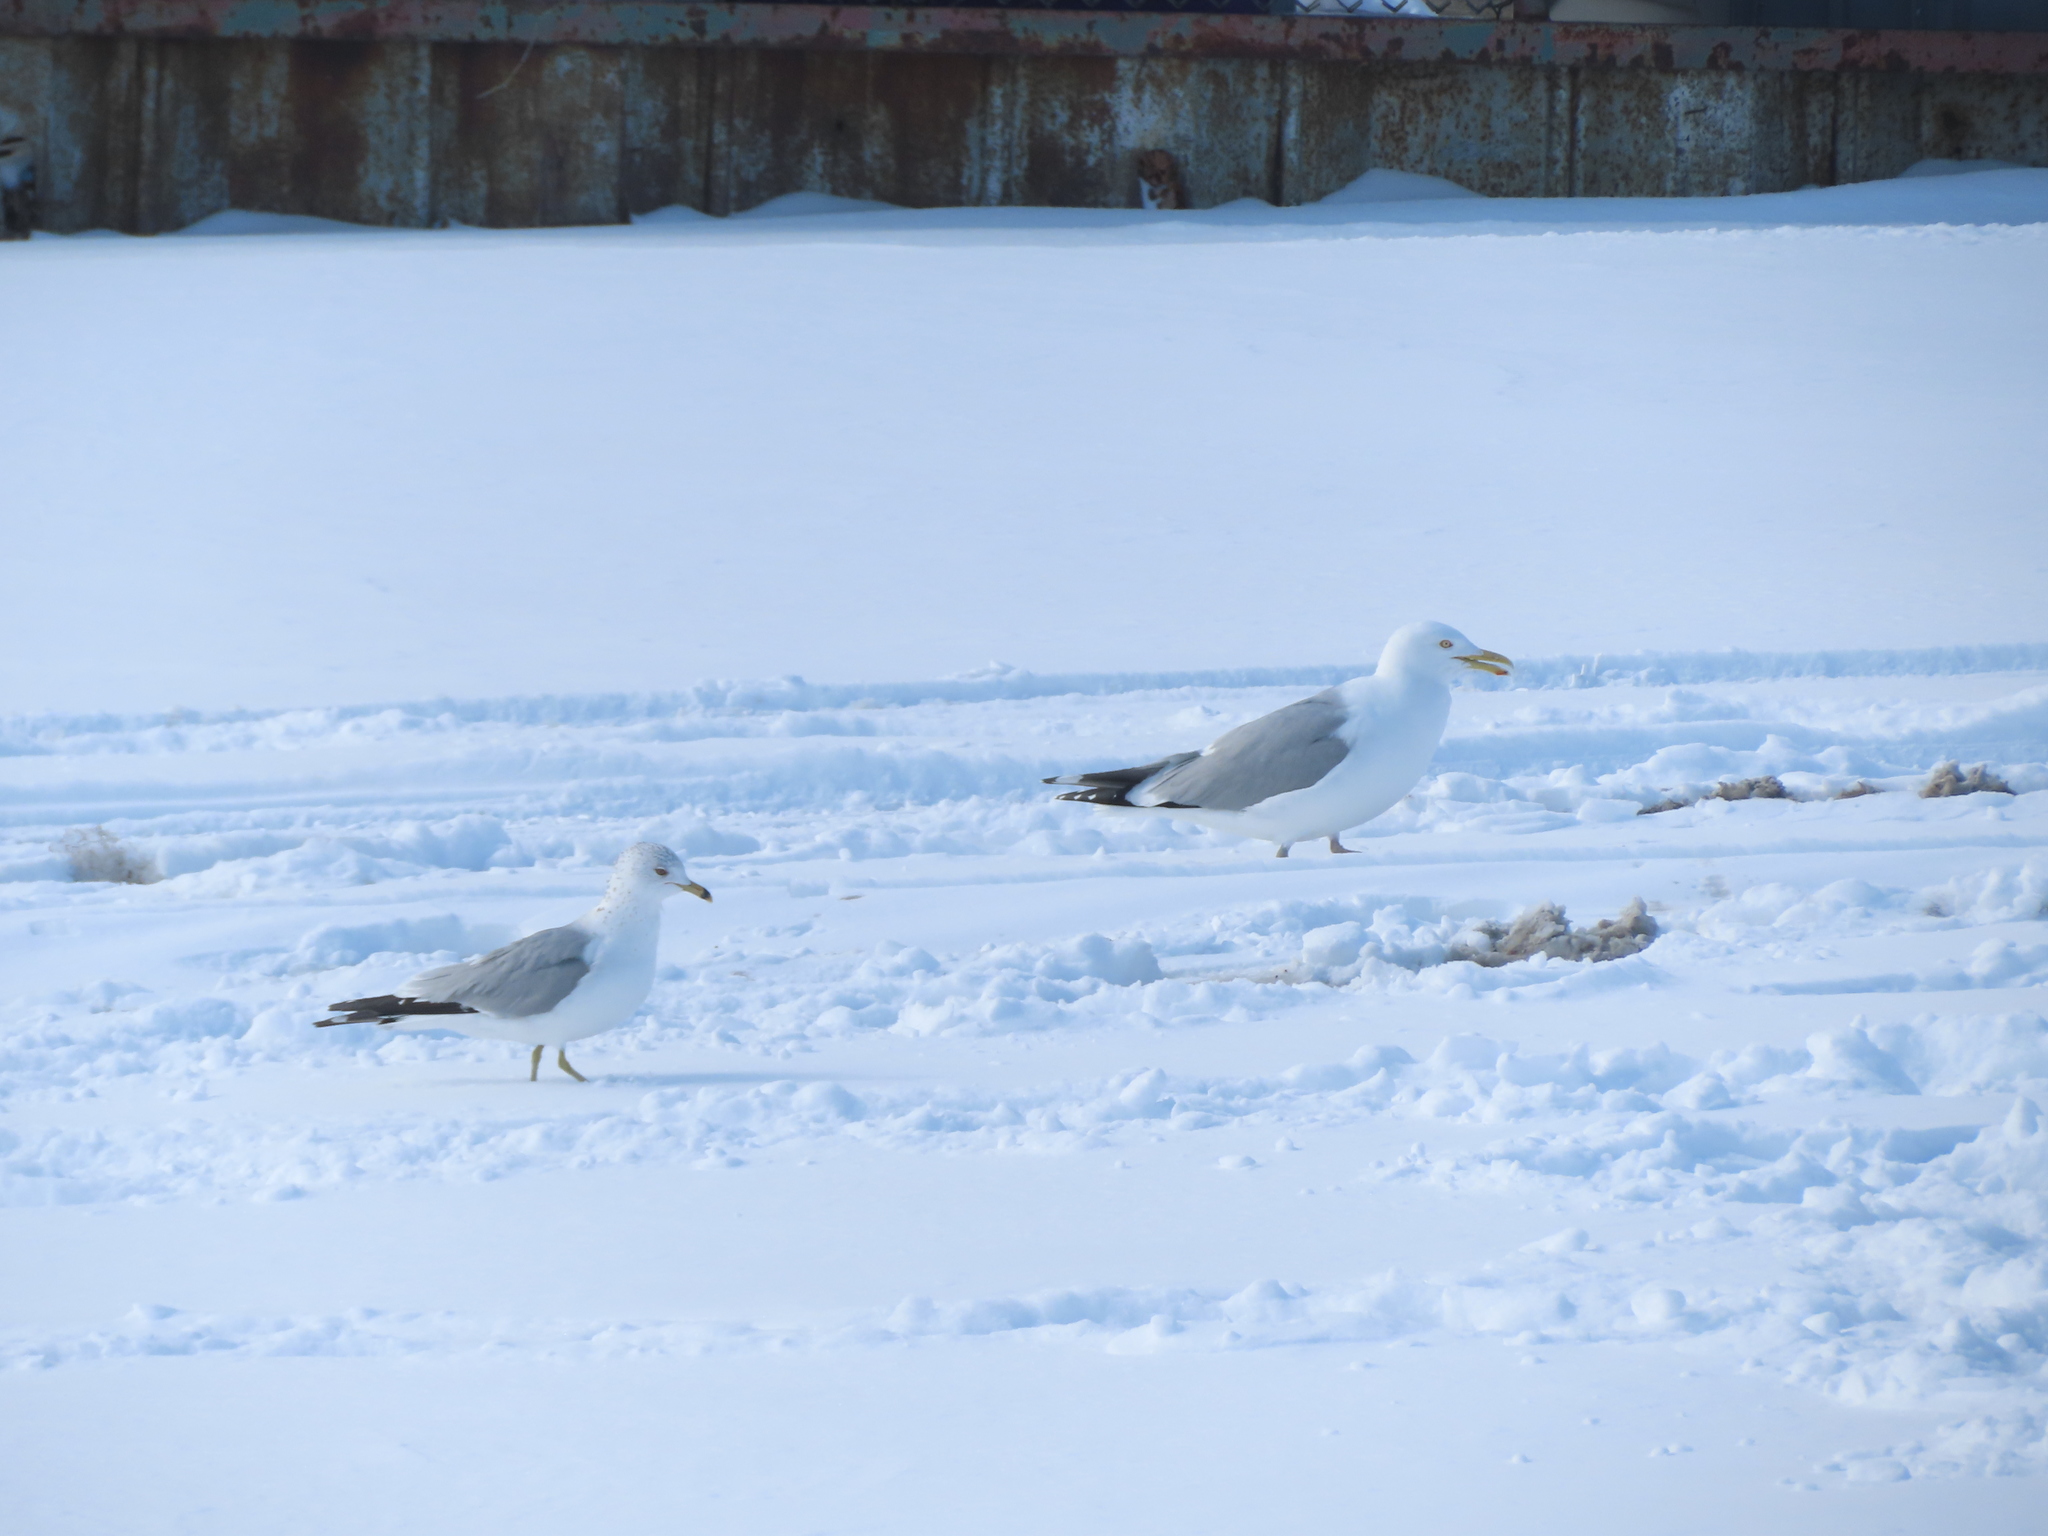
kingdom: Animalia
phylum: Chordata
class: Aves
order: Charadriiformes
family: Laridae
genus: Larus
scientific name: Larus argentatus
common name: Herring gull
